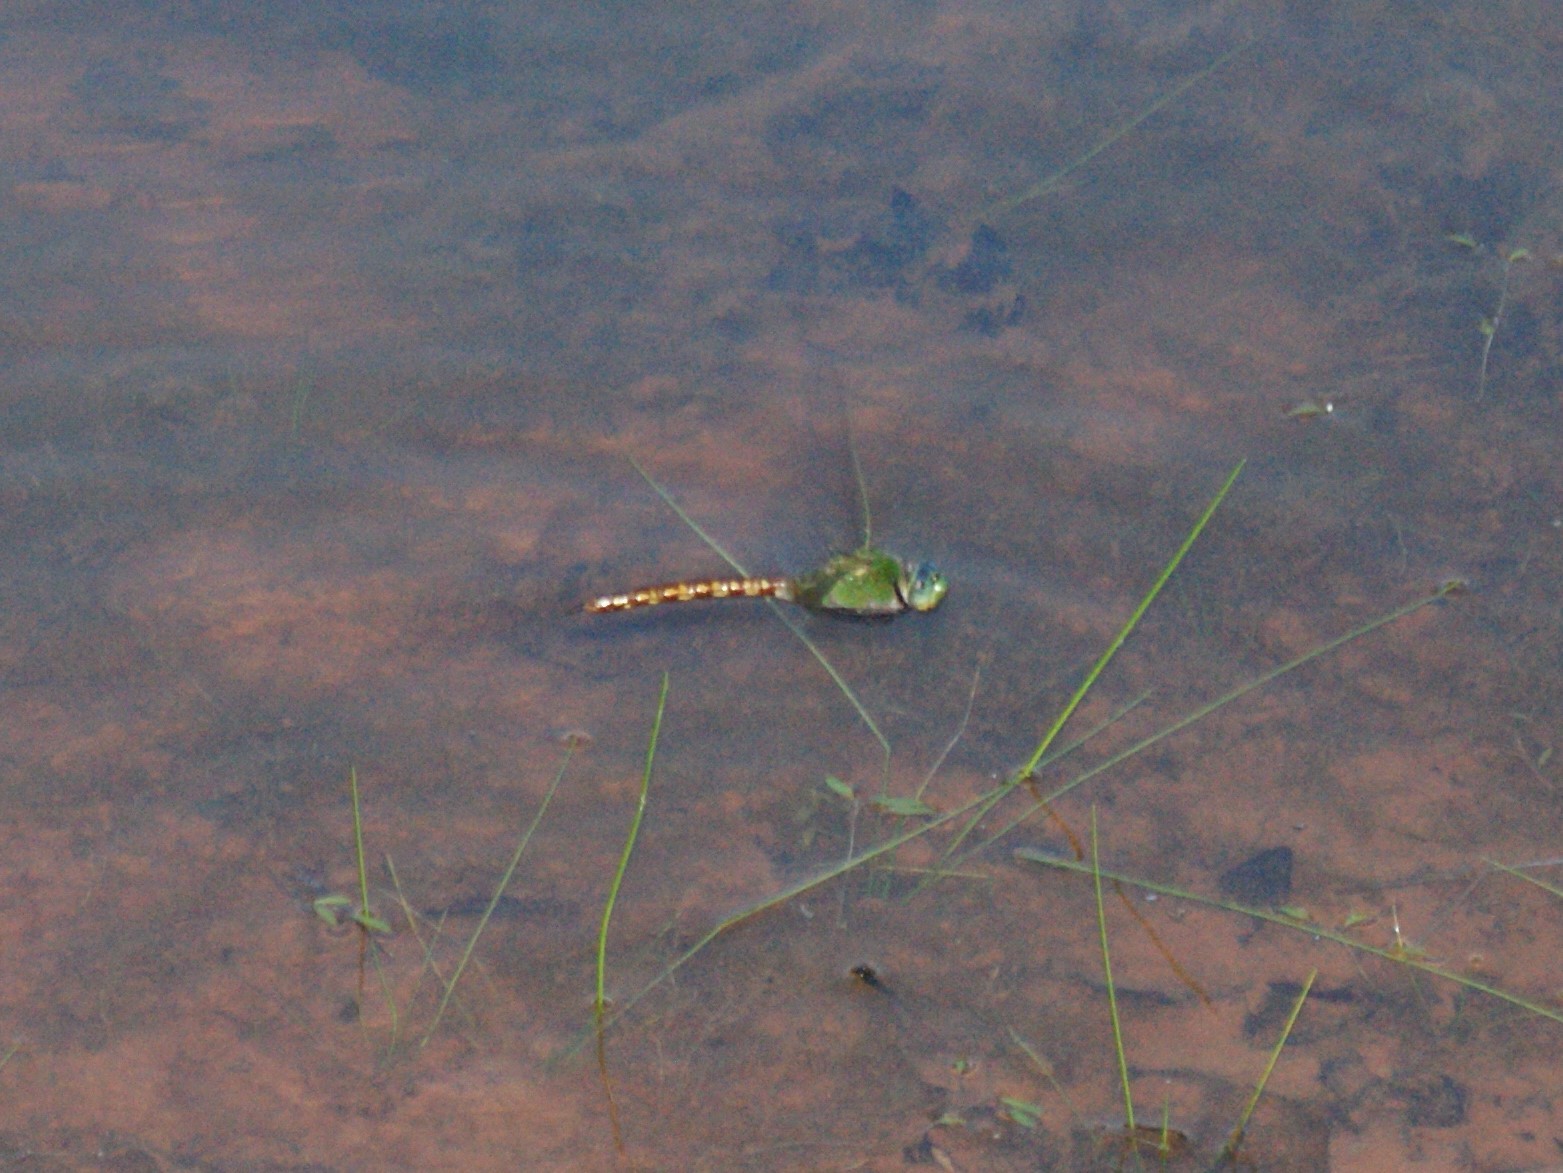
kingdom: Animalia
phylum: Arthropoda
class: Insecta
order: Odonata
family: Aeshnidae
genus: Anax
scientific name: Anax longipes
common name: Comet darner
